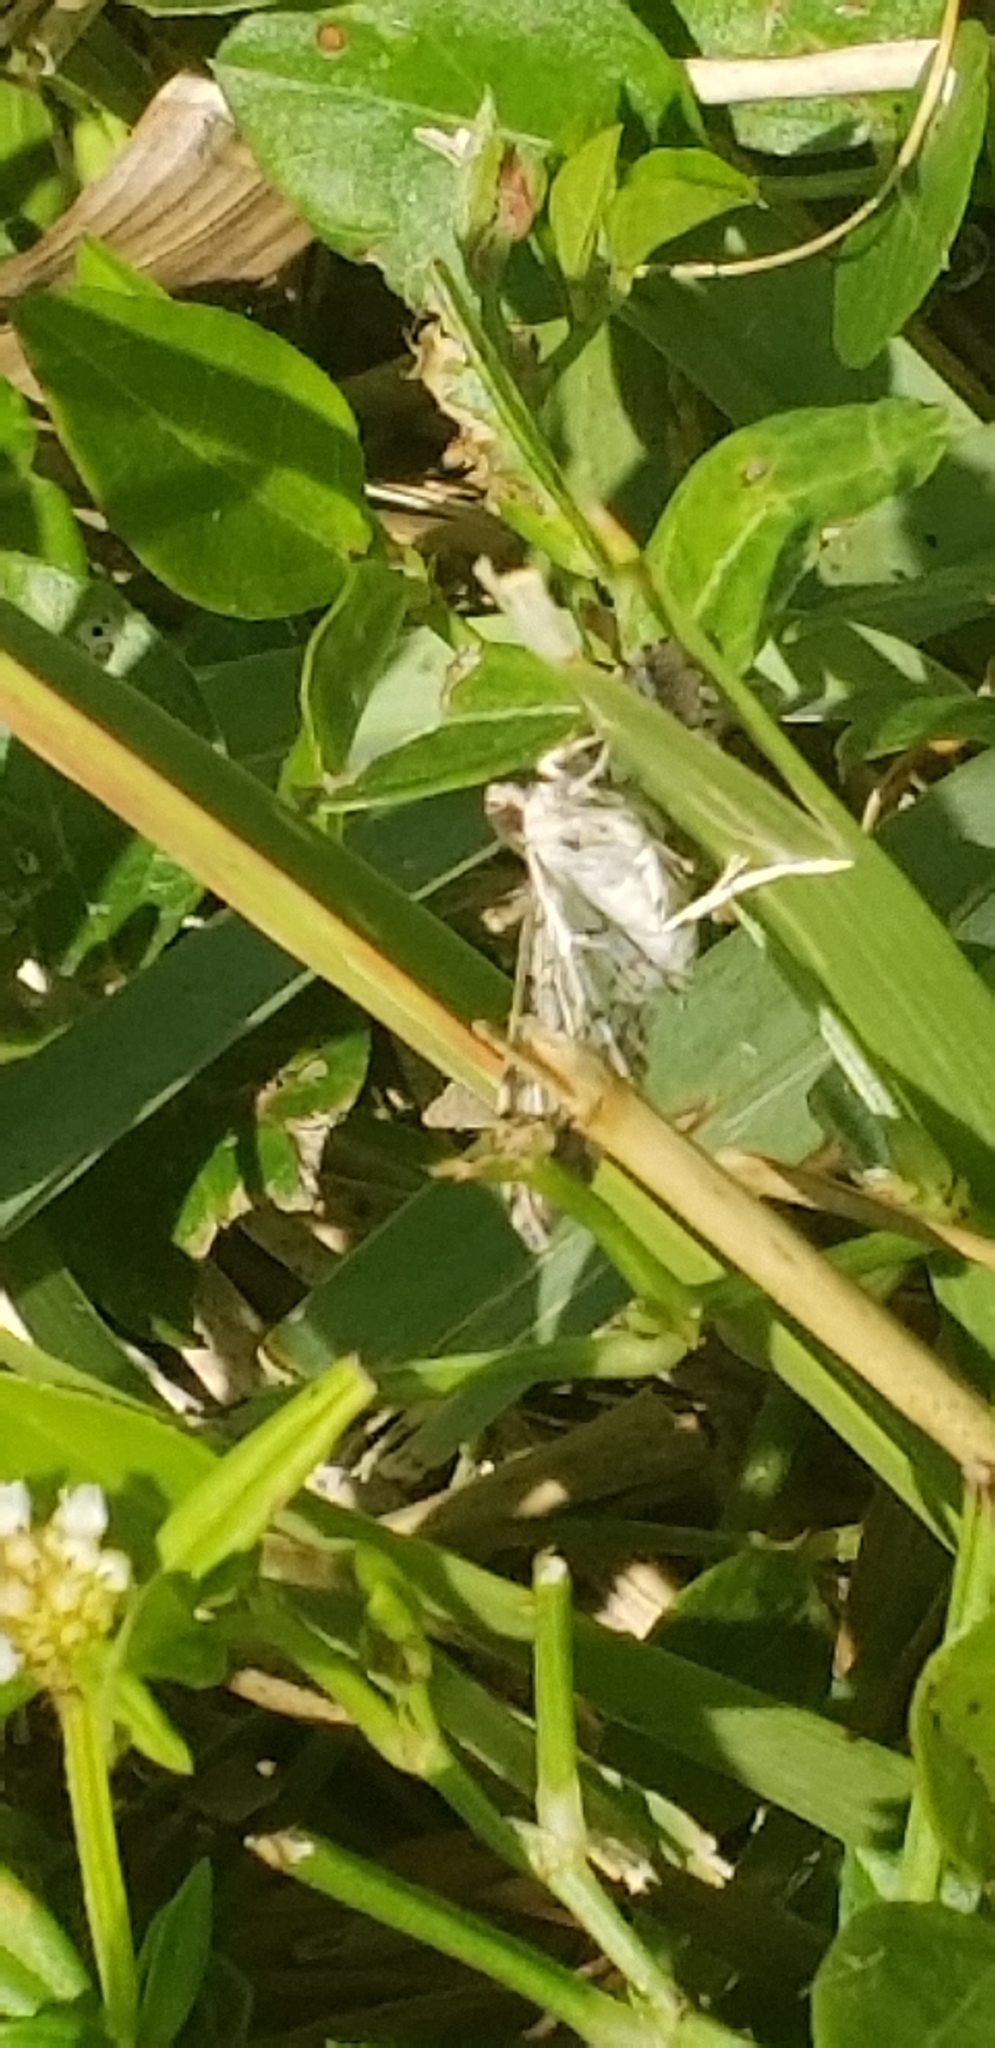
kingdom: Animalia
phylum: Arthropoda
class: Insecta
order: Lepidoptera
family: Crambidae
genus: Samea
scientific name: Samea ecclesialis
